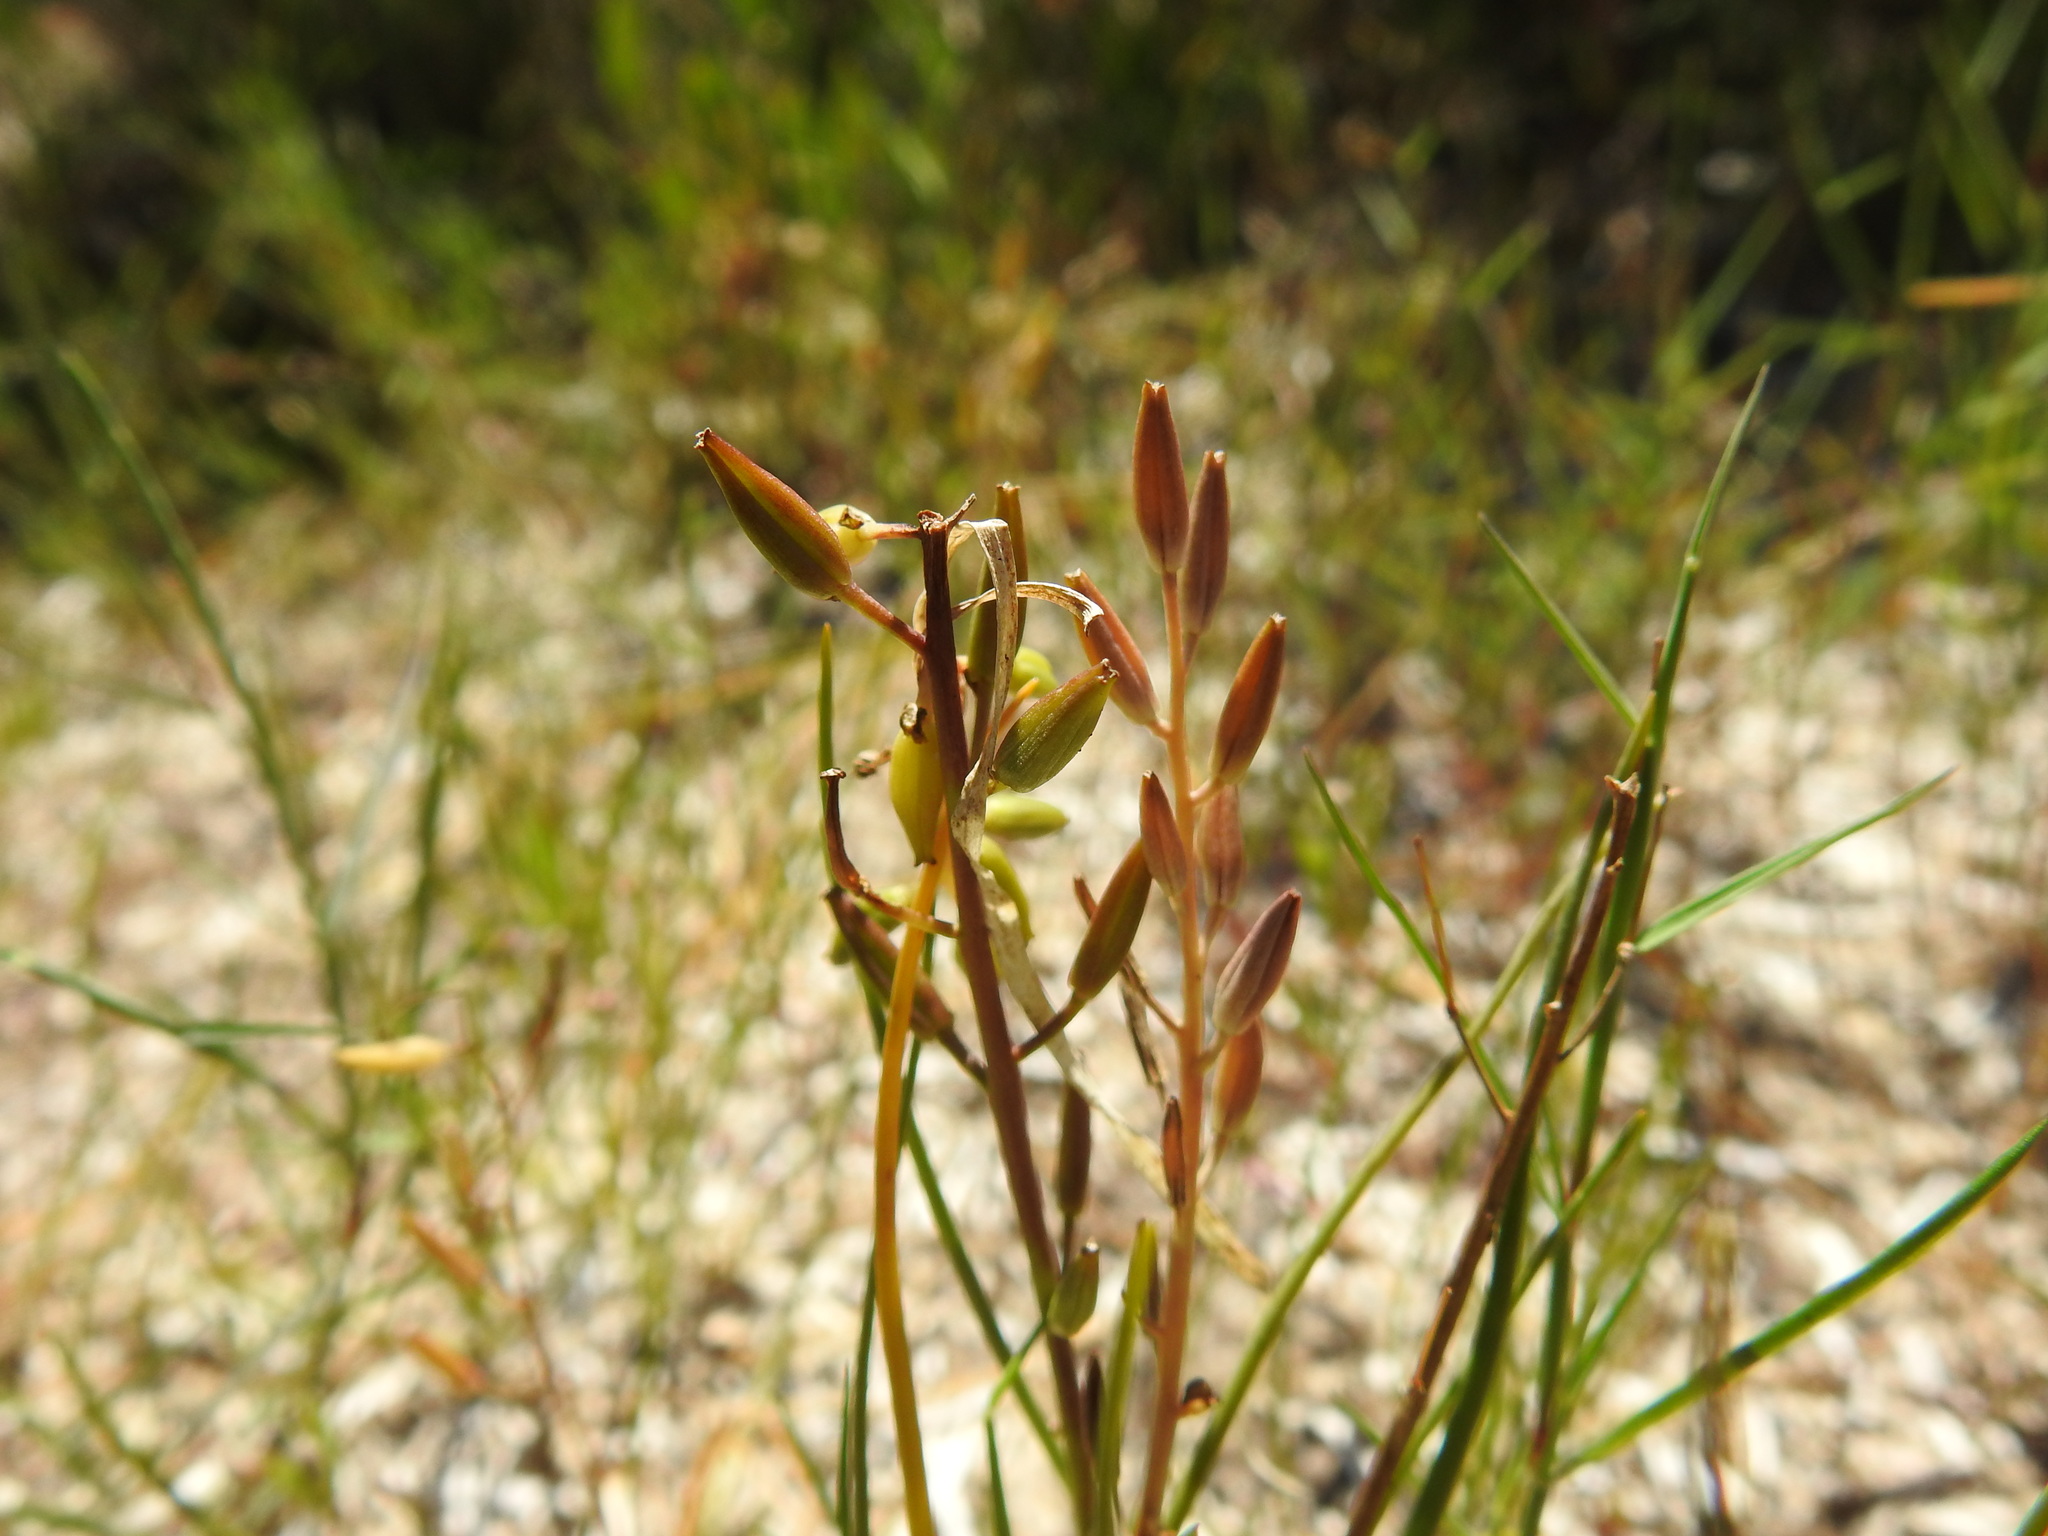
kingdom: Plantae
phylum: Tracheophyta
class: Liliopsida
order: Alismatales
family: Juncaginaceae
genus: Triglochin
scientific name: Triglochin barrelieri
